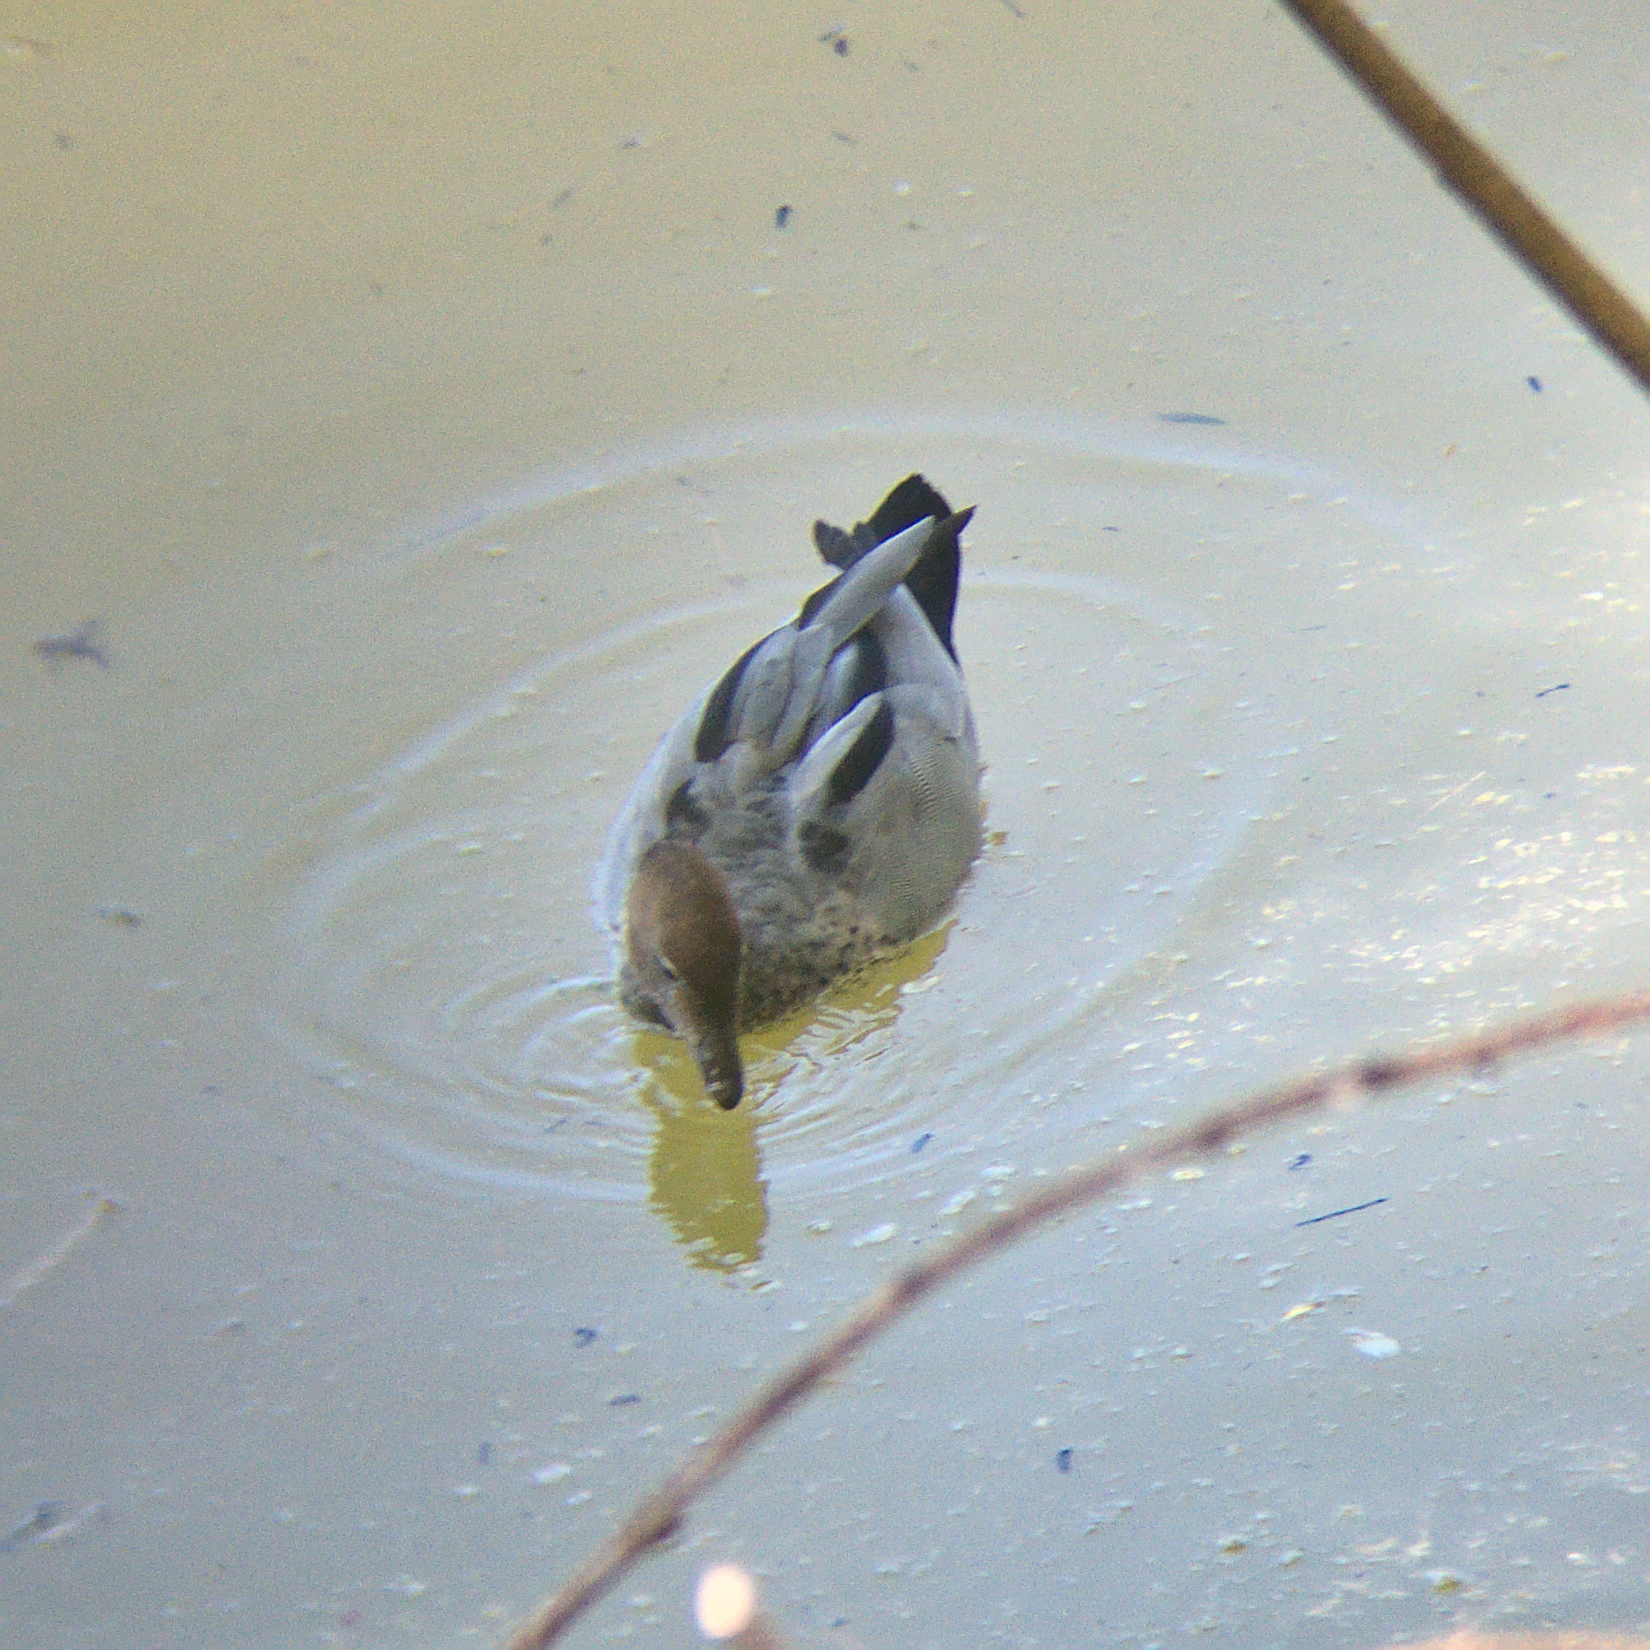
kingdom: Animalia
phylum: Chordata
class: Aves
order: Anseriformes
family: Anatidae
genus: Chenonetta
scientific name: Chenonetta jubata
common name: Maned duck
